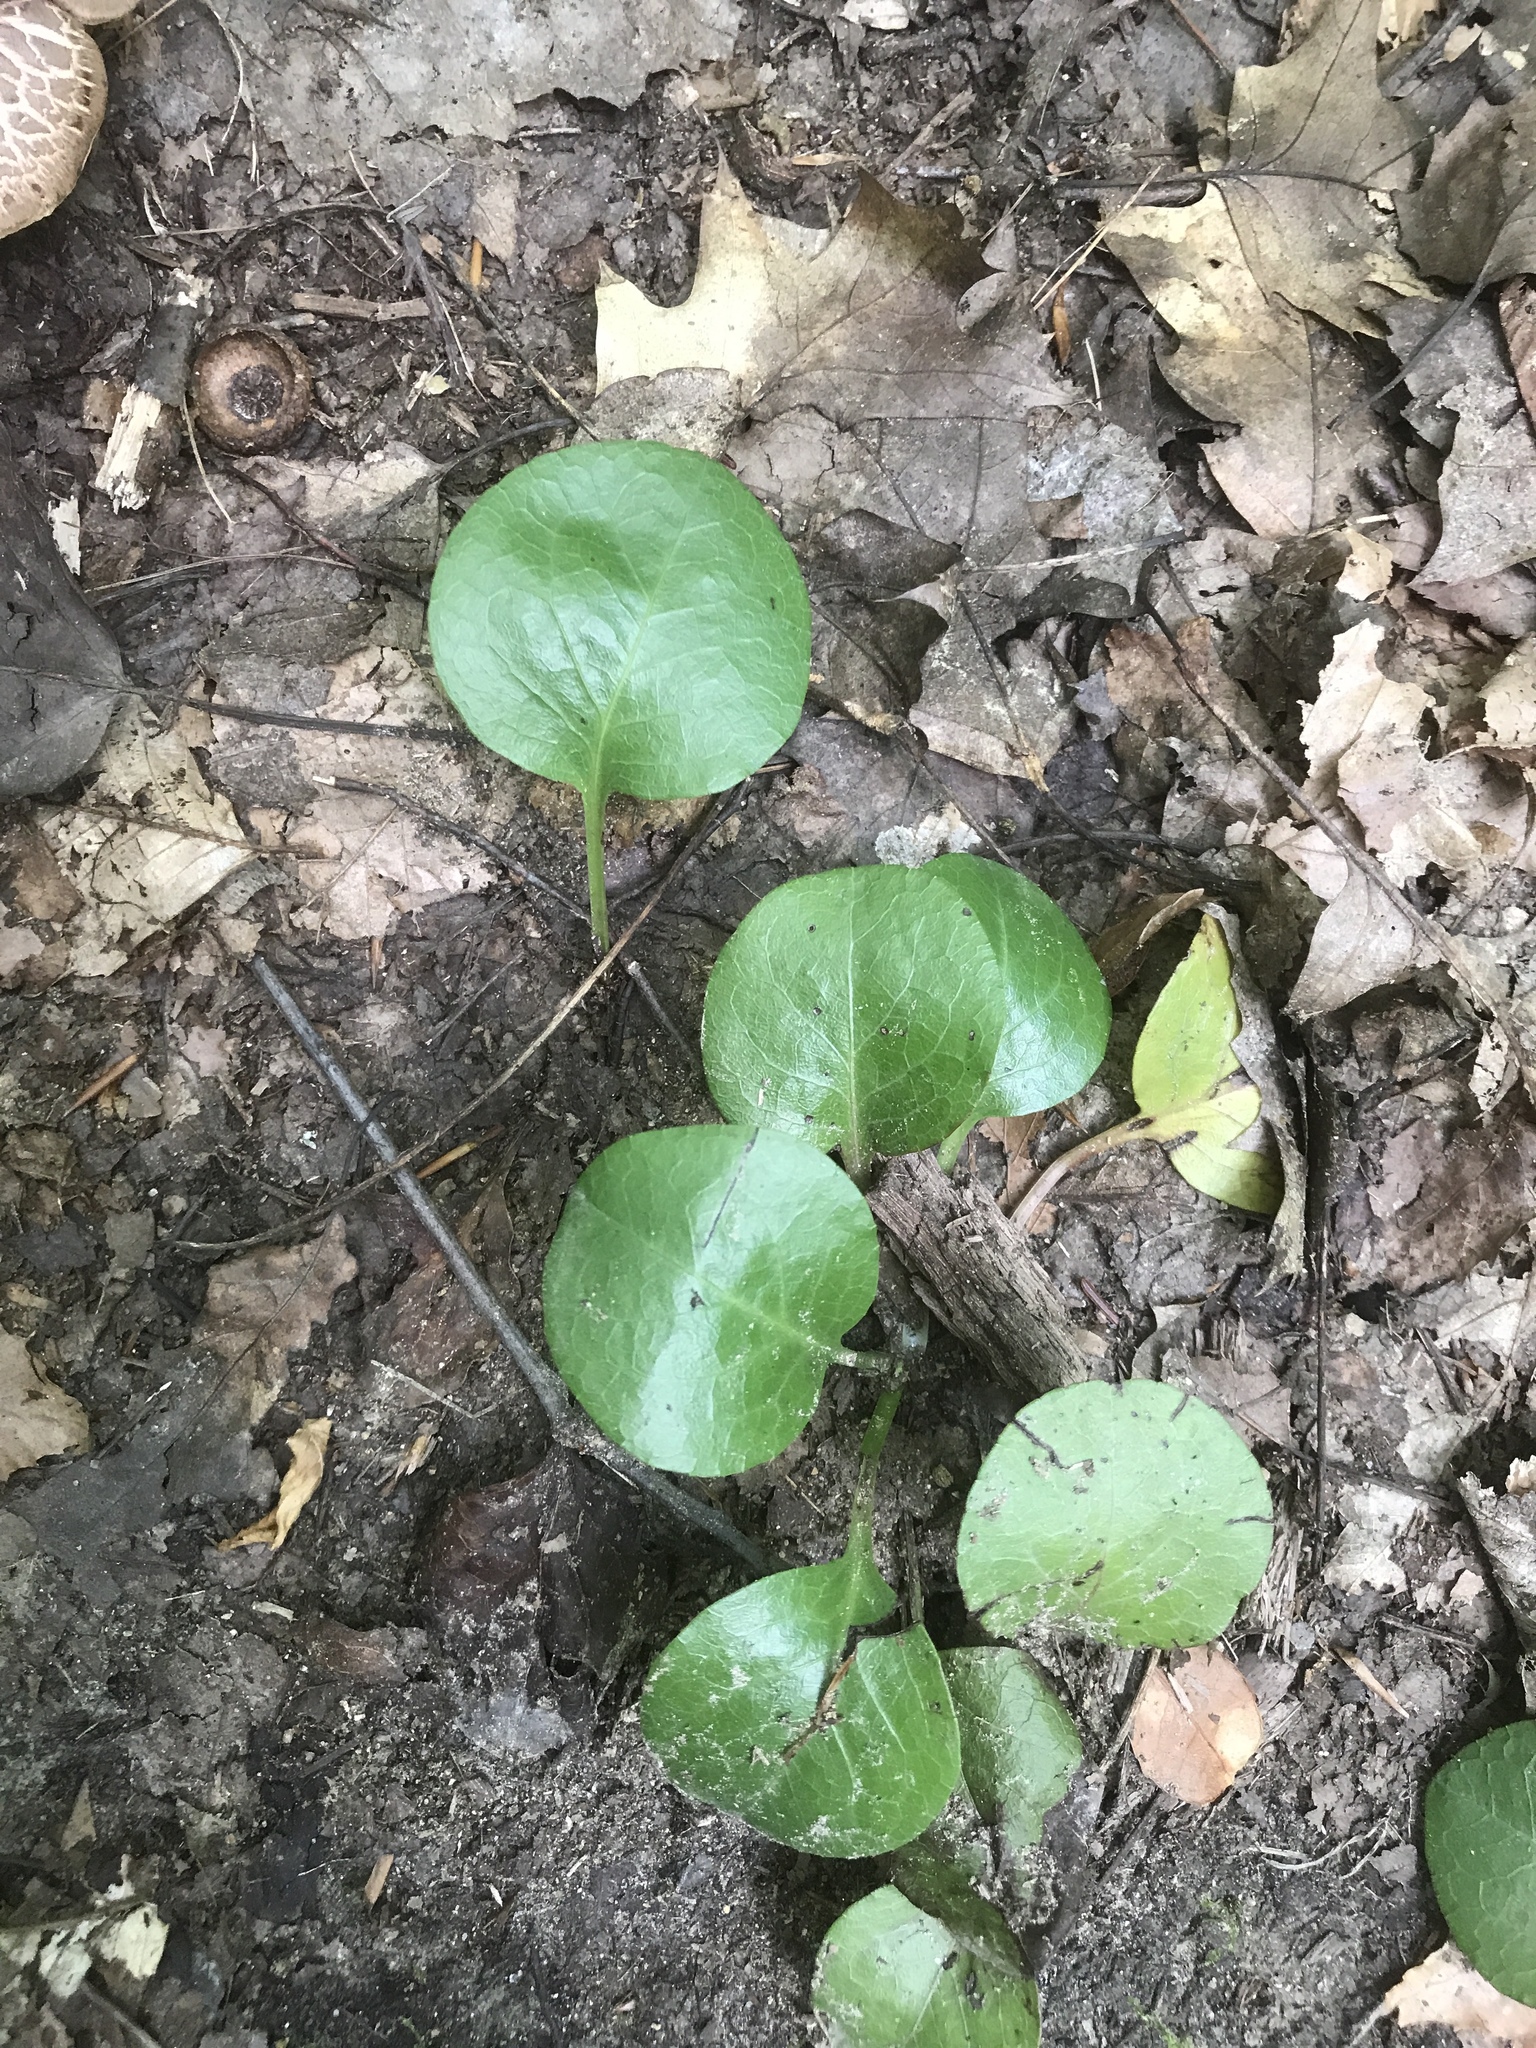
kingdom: Plantae
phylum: Tracheophyta
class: Magnoliopsida
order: Ericales
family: Ericaceae
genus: Pyrola
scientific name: Pyrola americana
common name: American wintergreen
